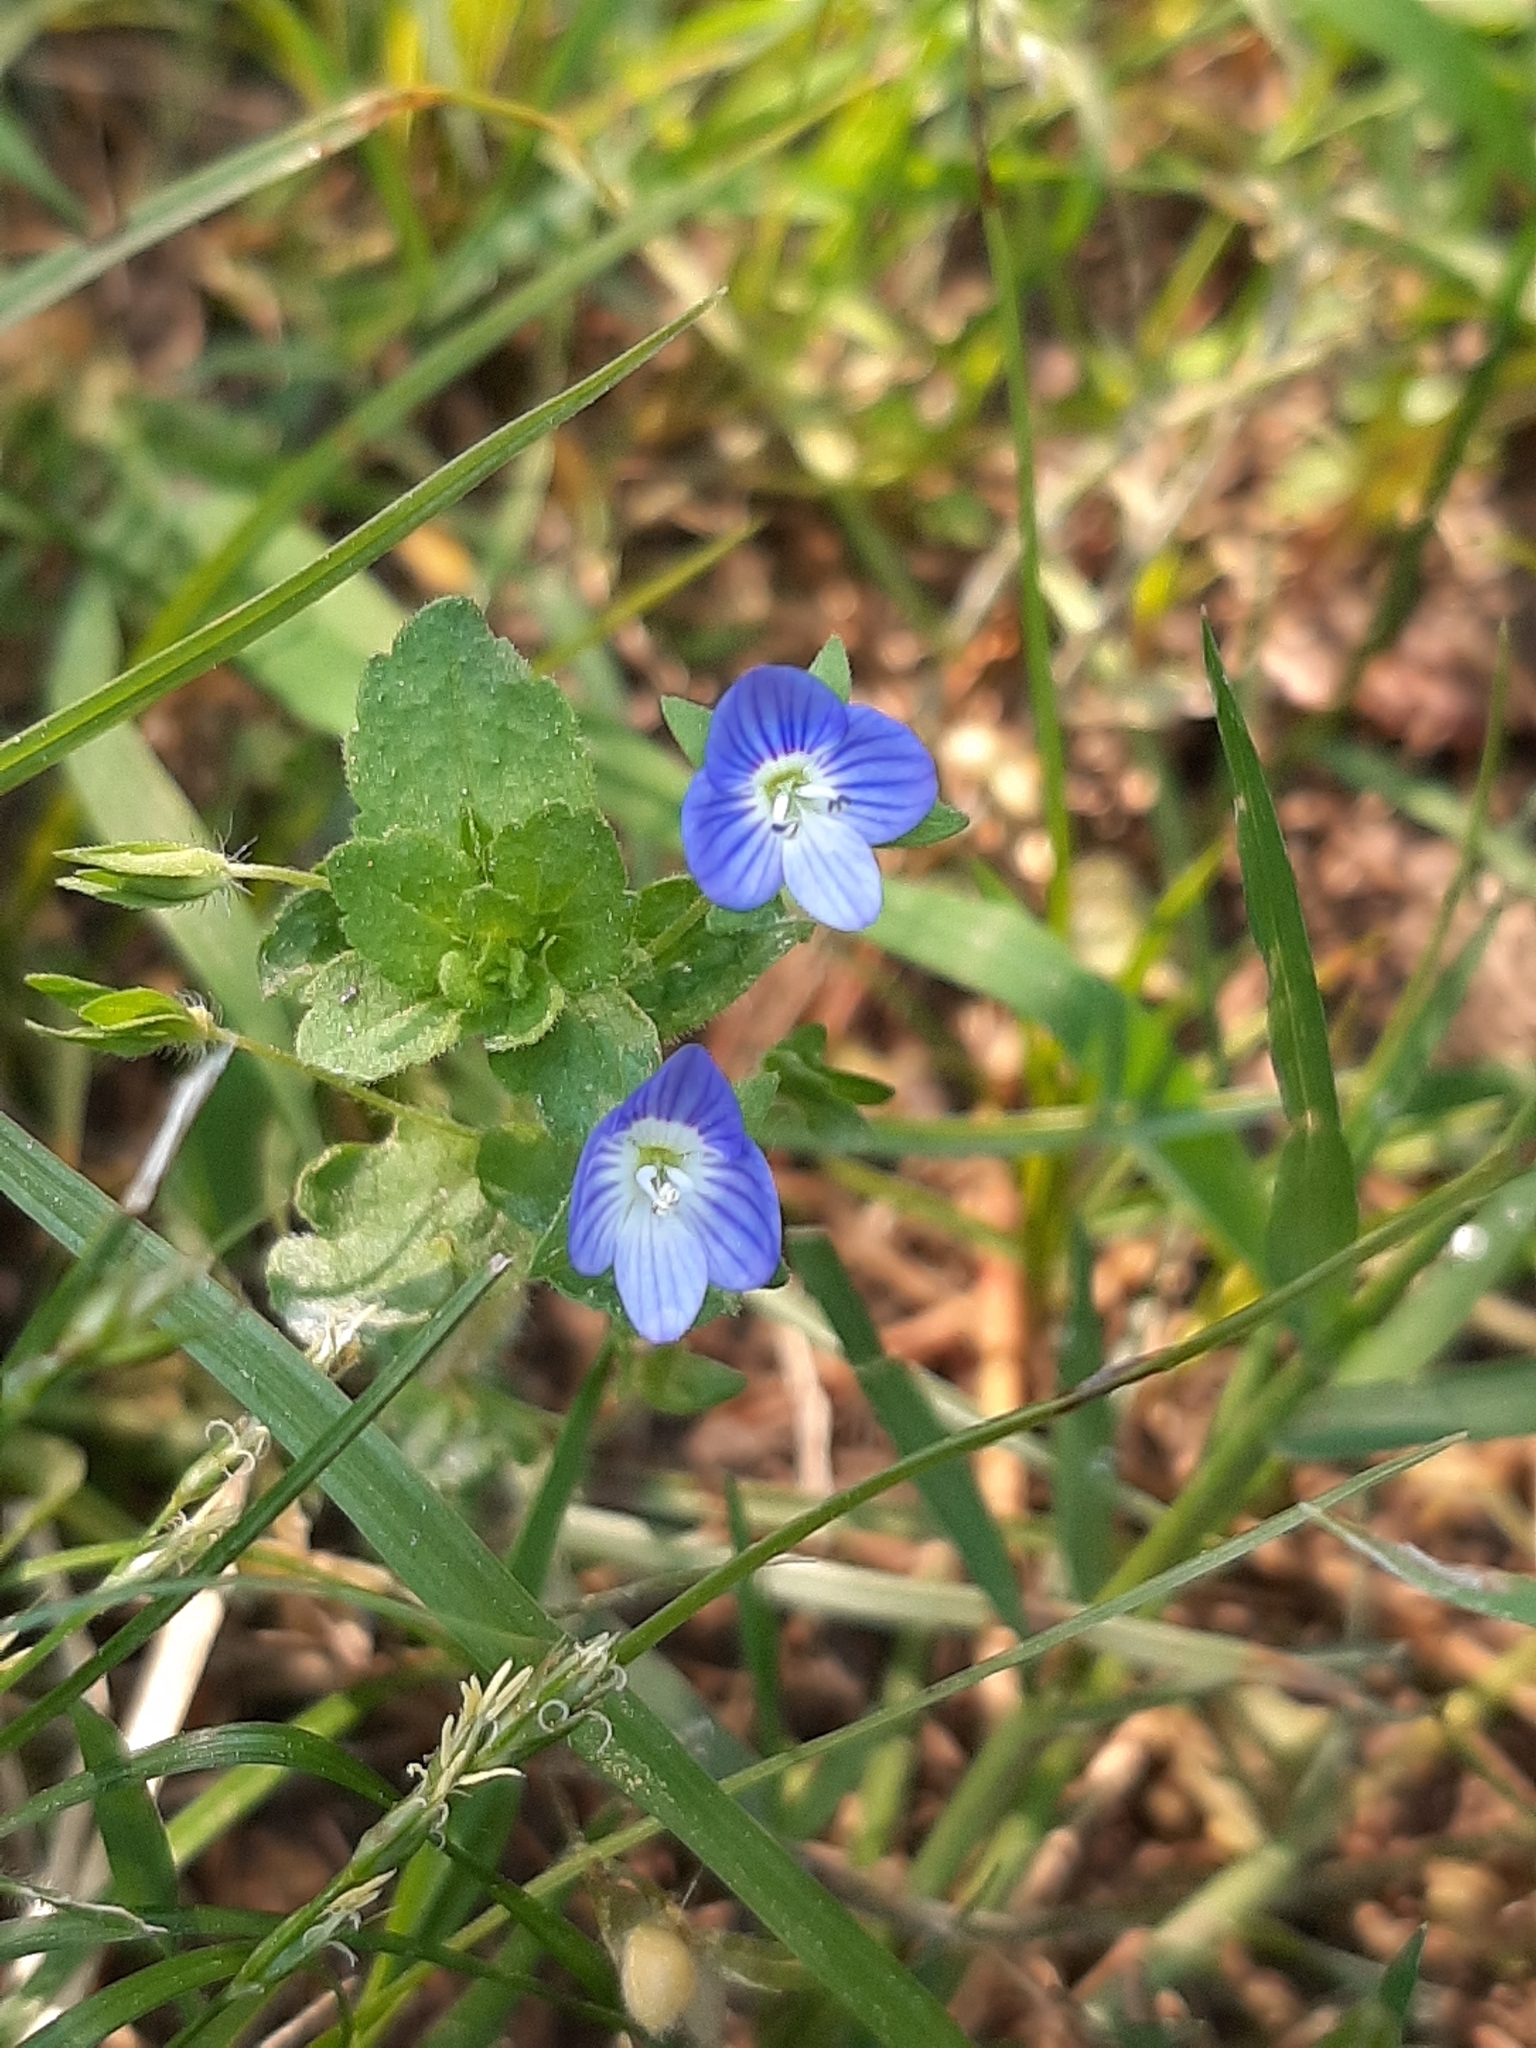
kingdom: Plantae
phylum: Tracheophyta
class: Magnoliopsida
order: Lamiales
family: Plantaginaceae
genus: Veronica
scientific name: Veronica persica
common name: Common field-speedwell
